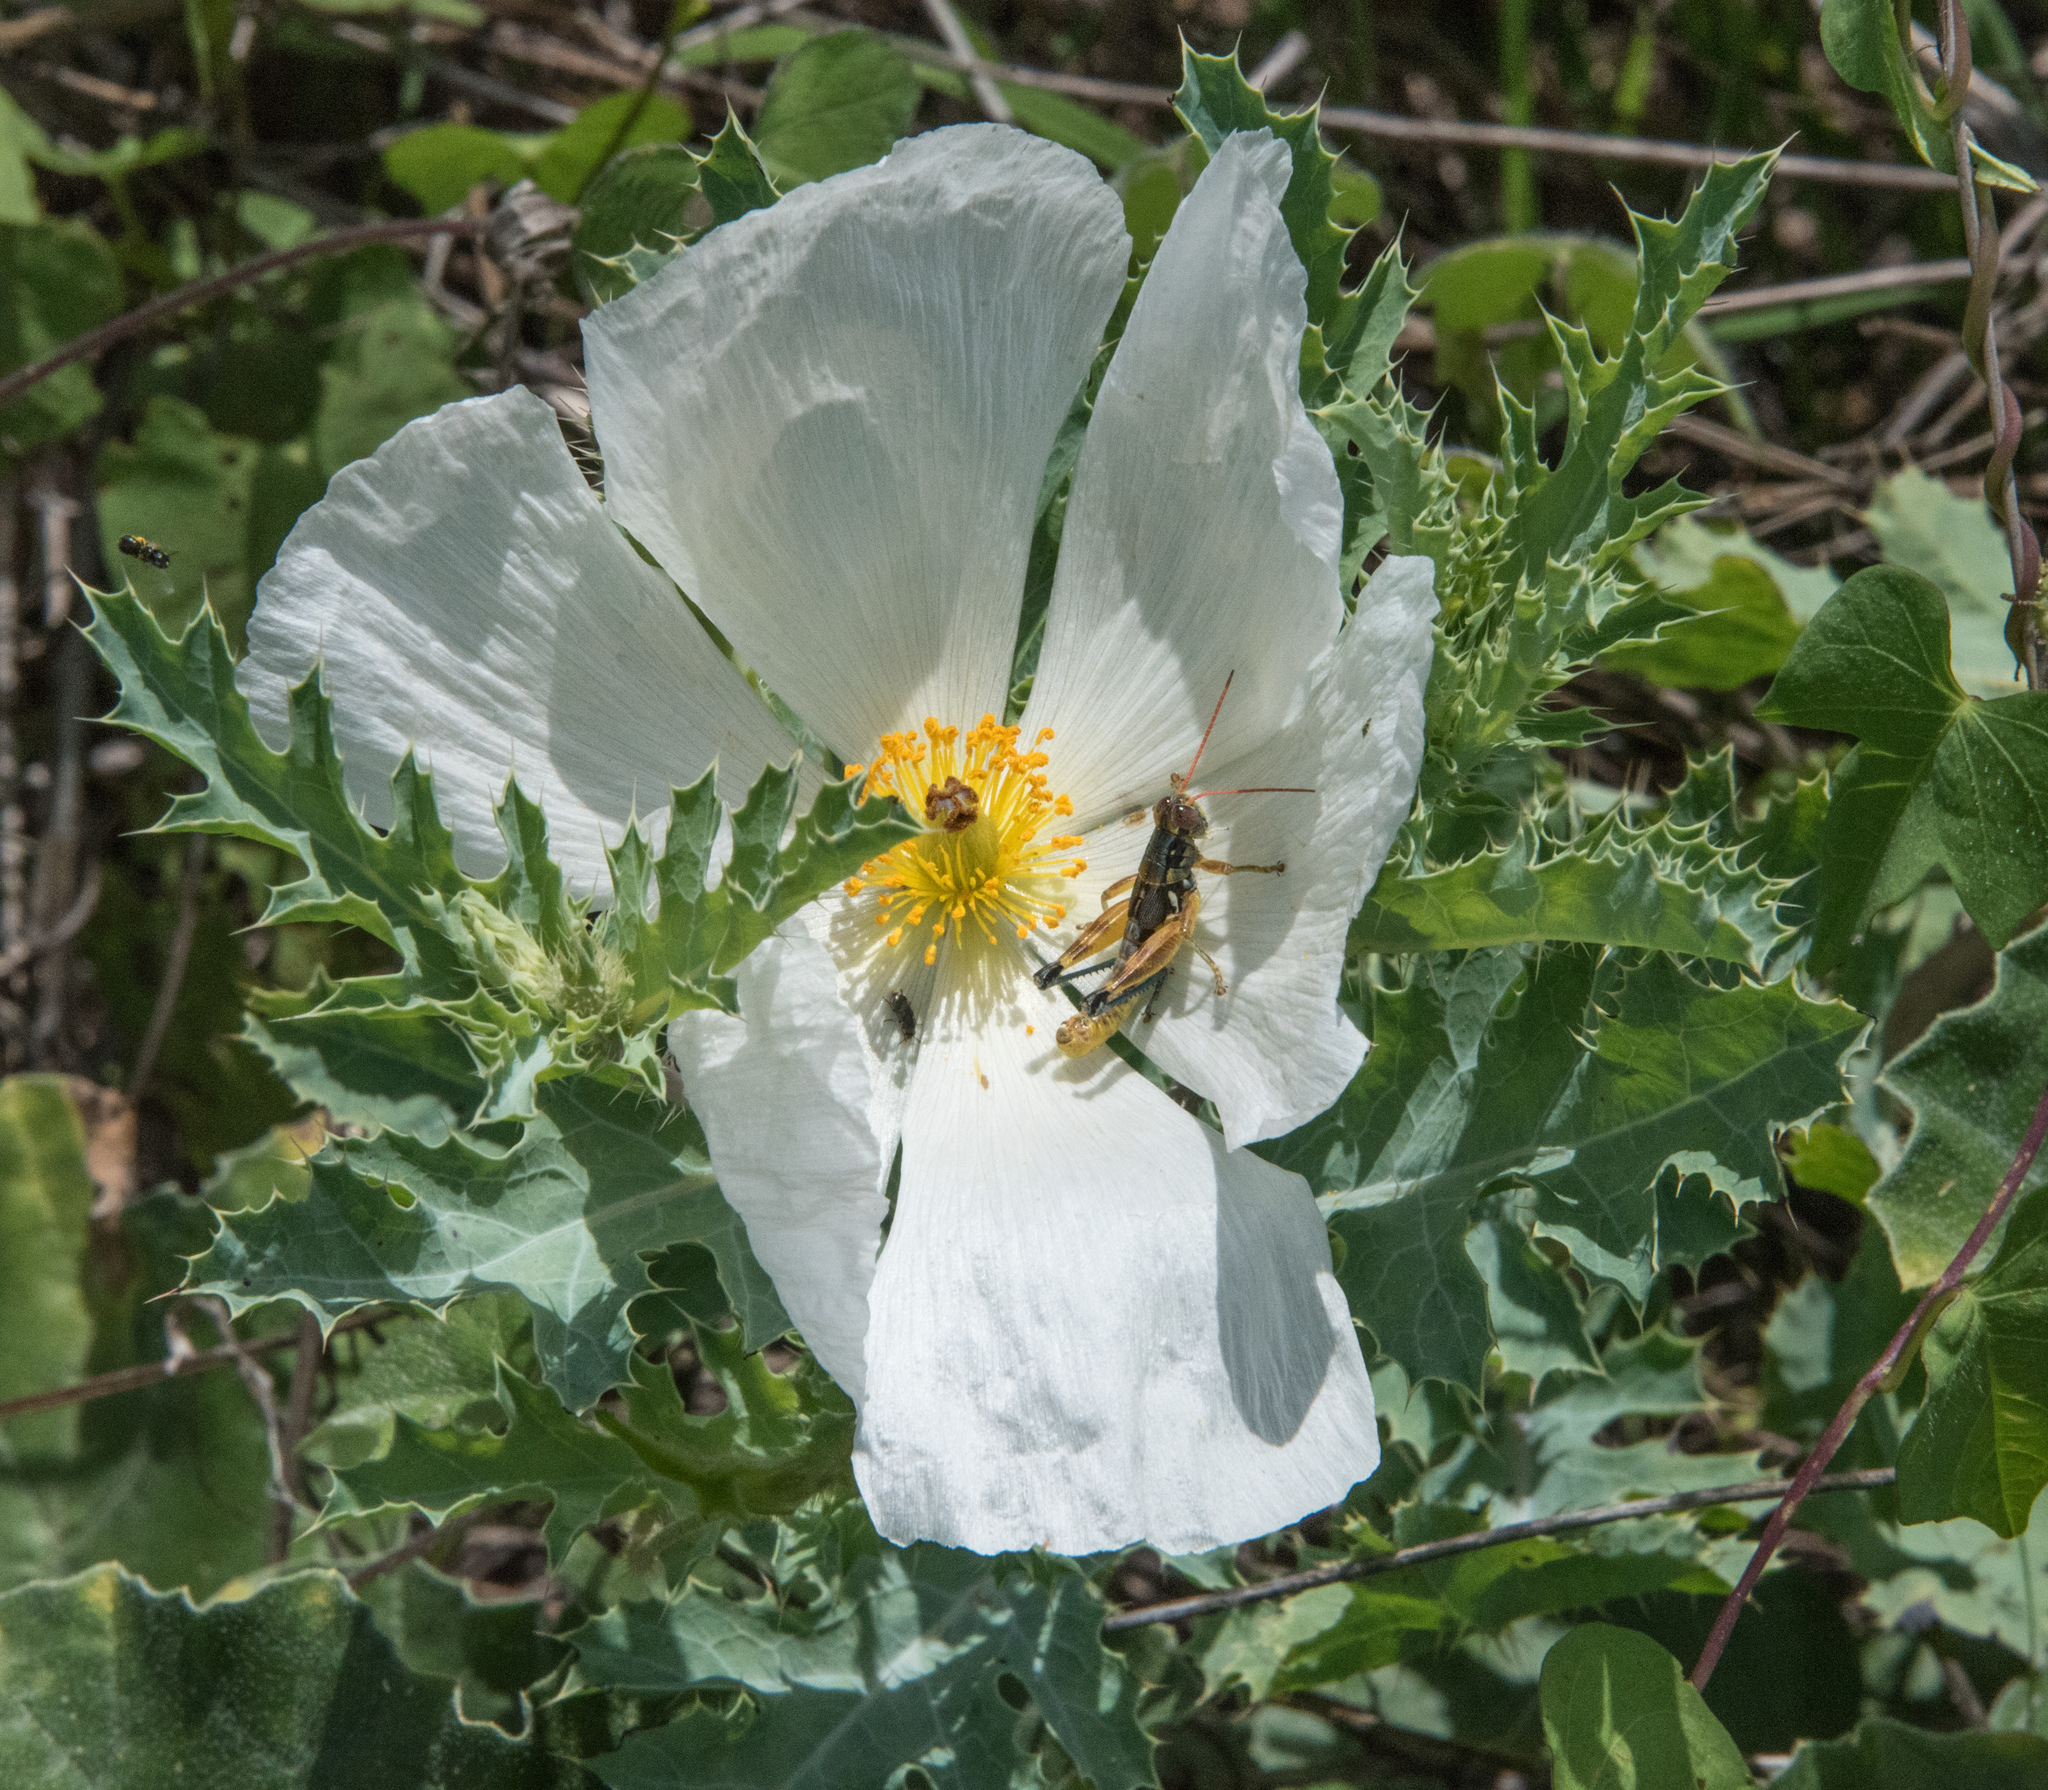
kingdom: Plantae
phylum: Tracheophyta
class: Magnoliopsida
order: Ranunculales
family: Papaveraceae
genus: Argemone
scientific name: Argemone pleiacantha
